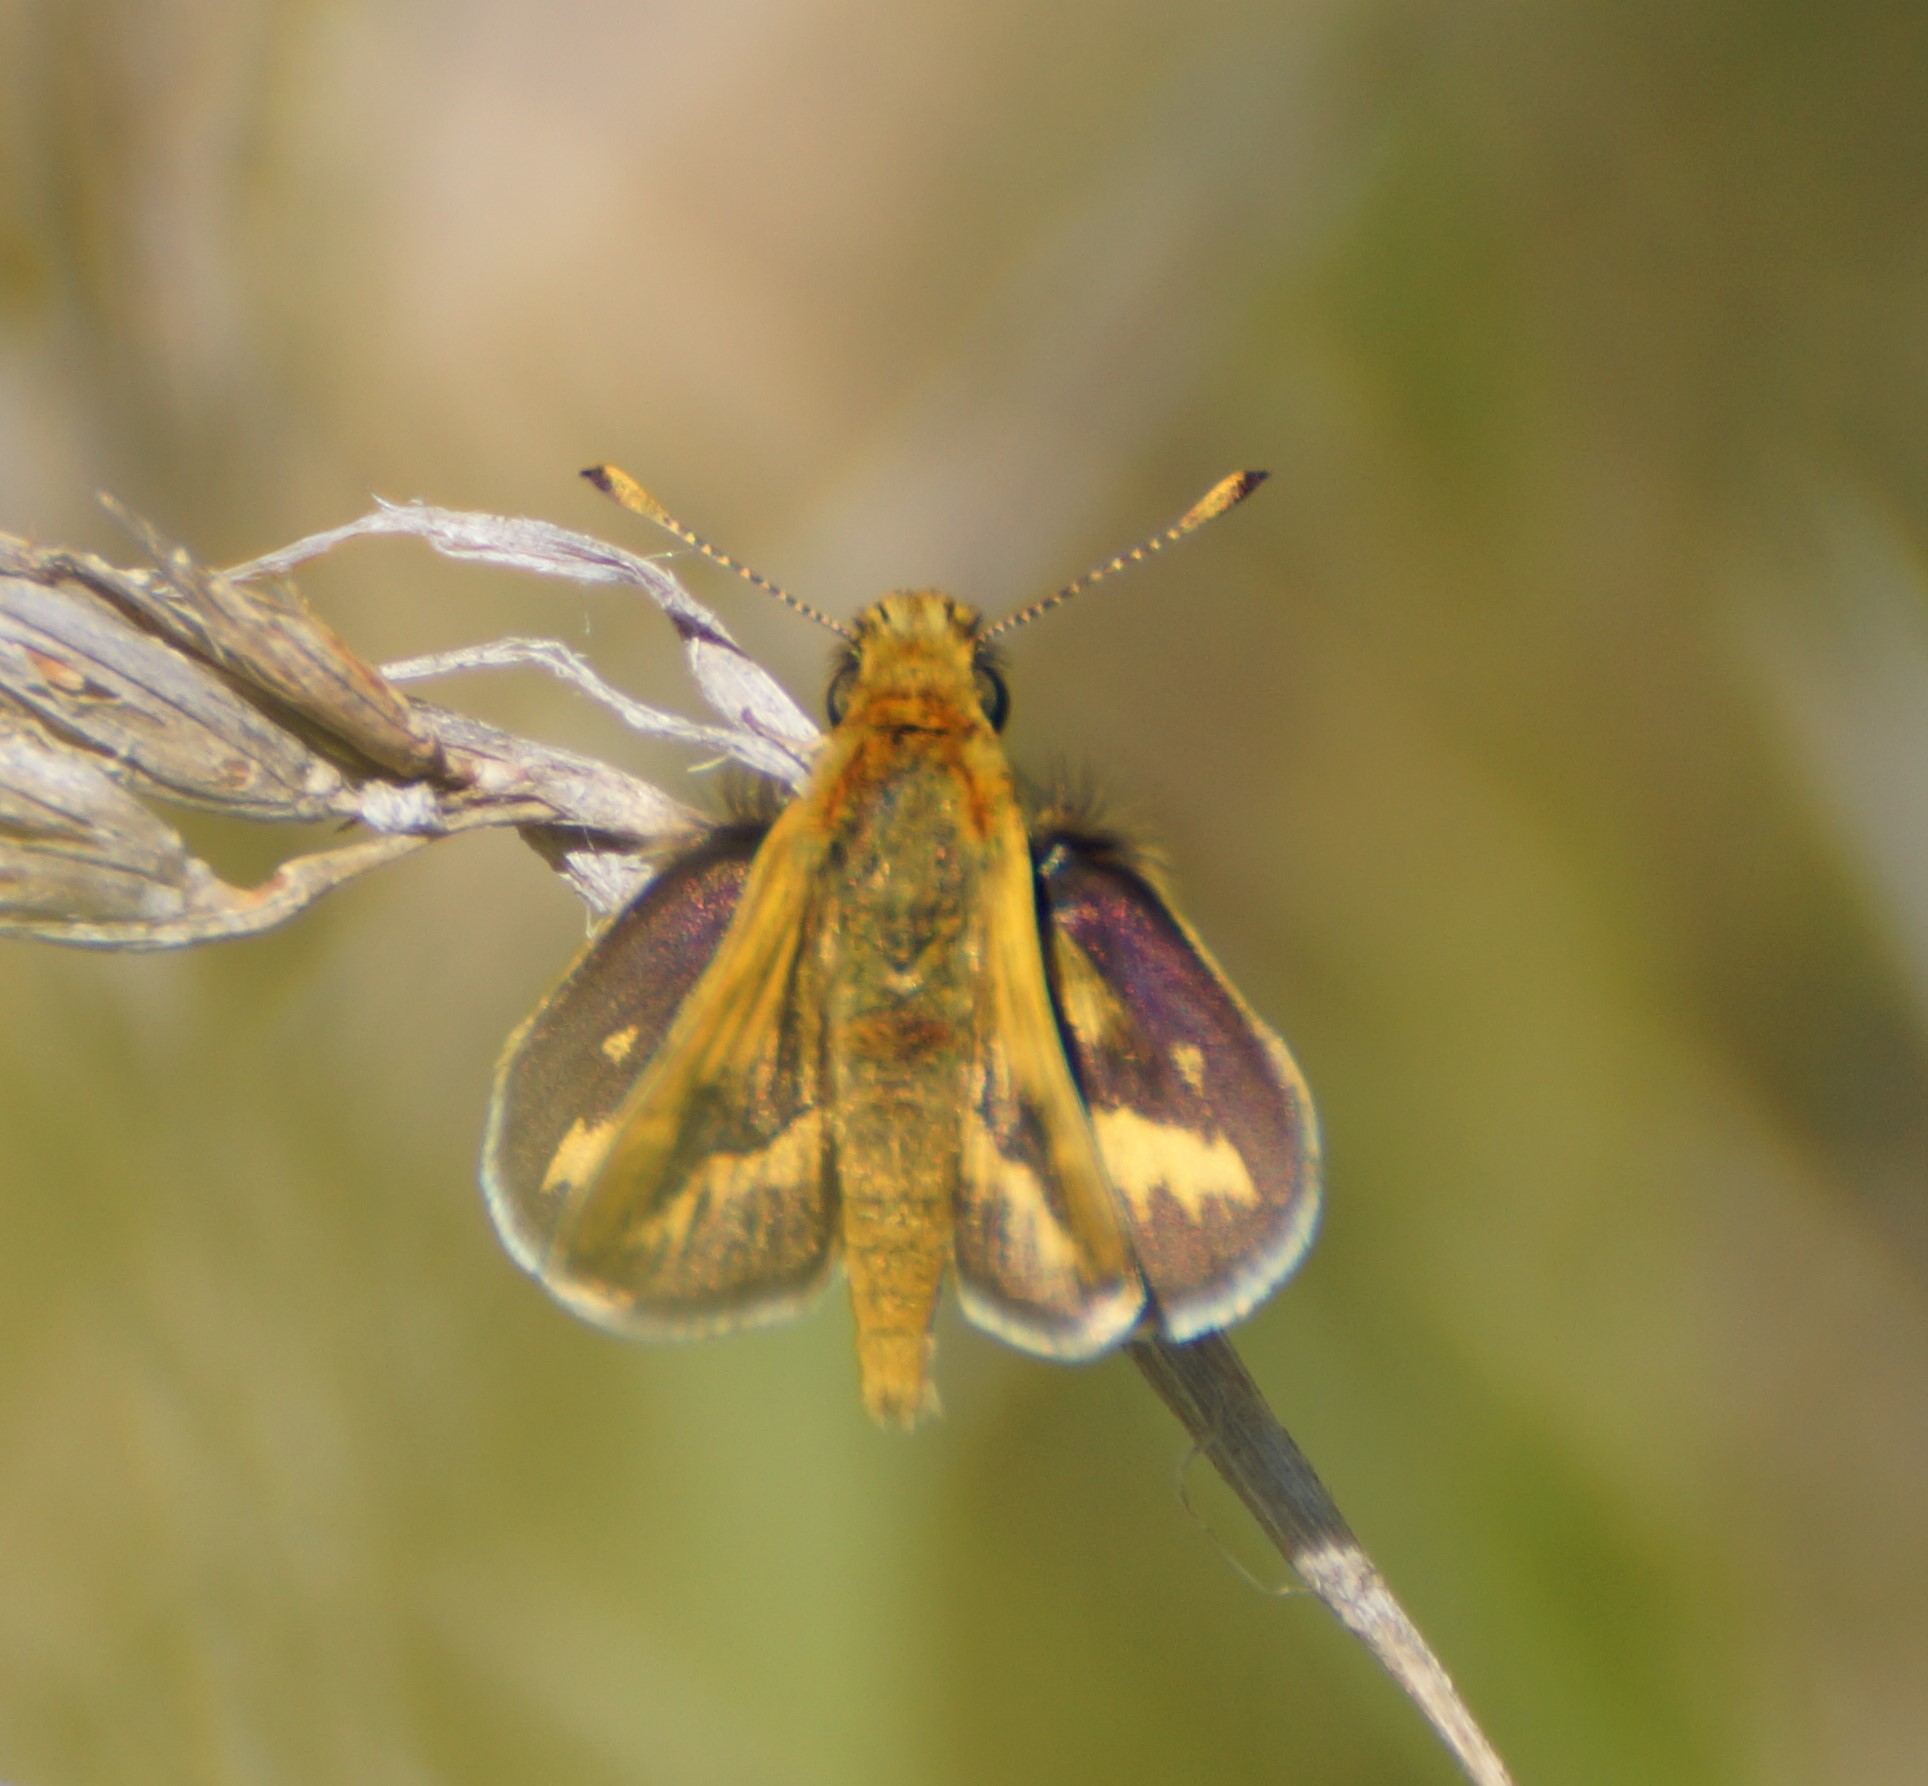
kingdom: Animalia
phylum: Arthropoda
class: Insecta
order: Lepidoptera
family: Hesperiidae
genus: Taractrocera
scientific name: Taractrocera papyria
